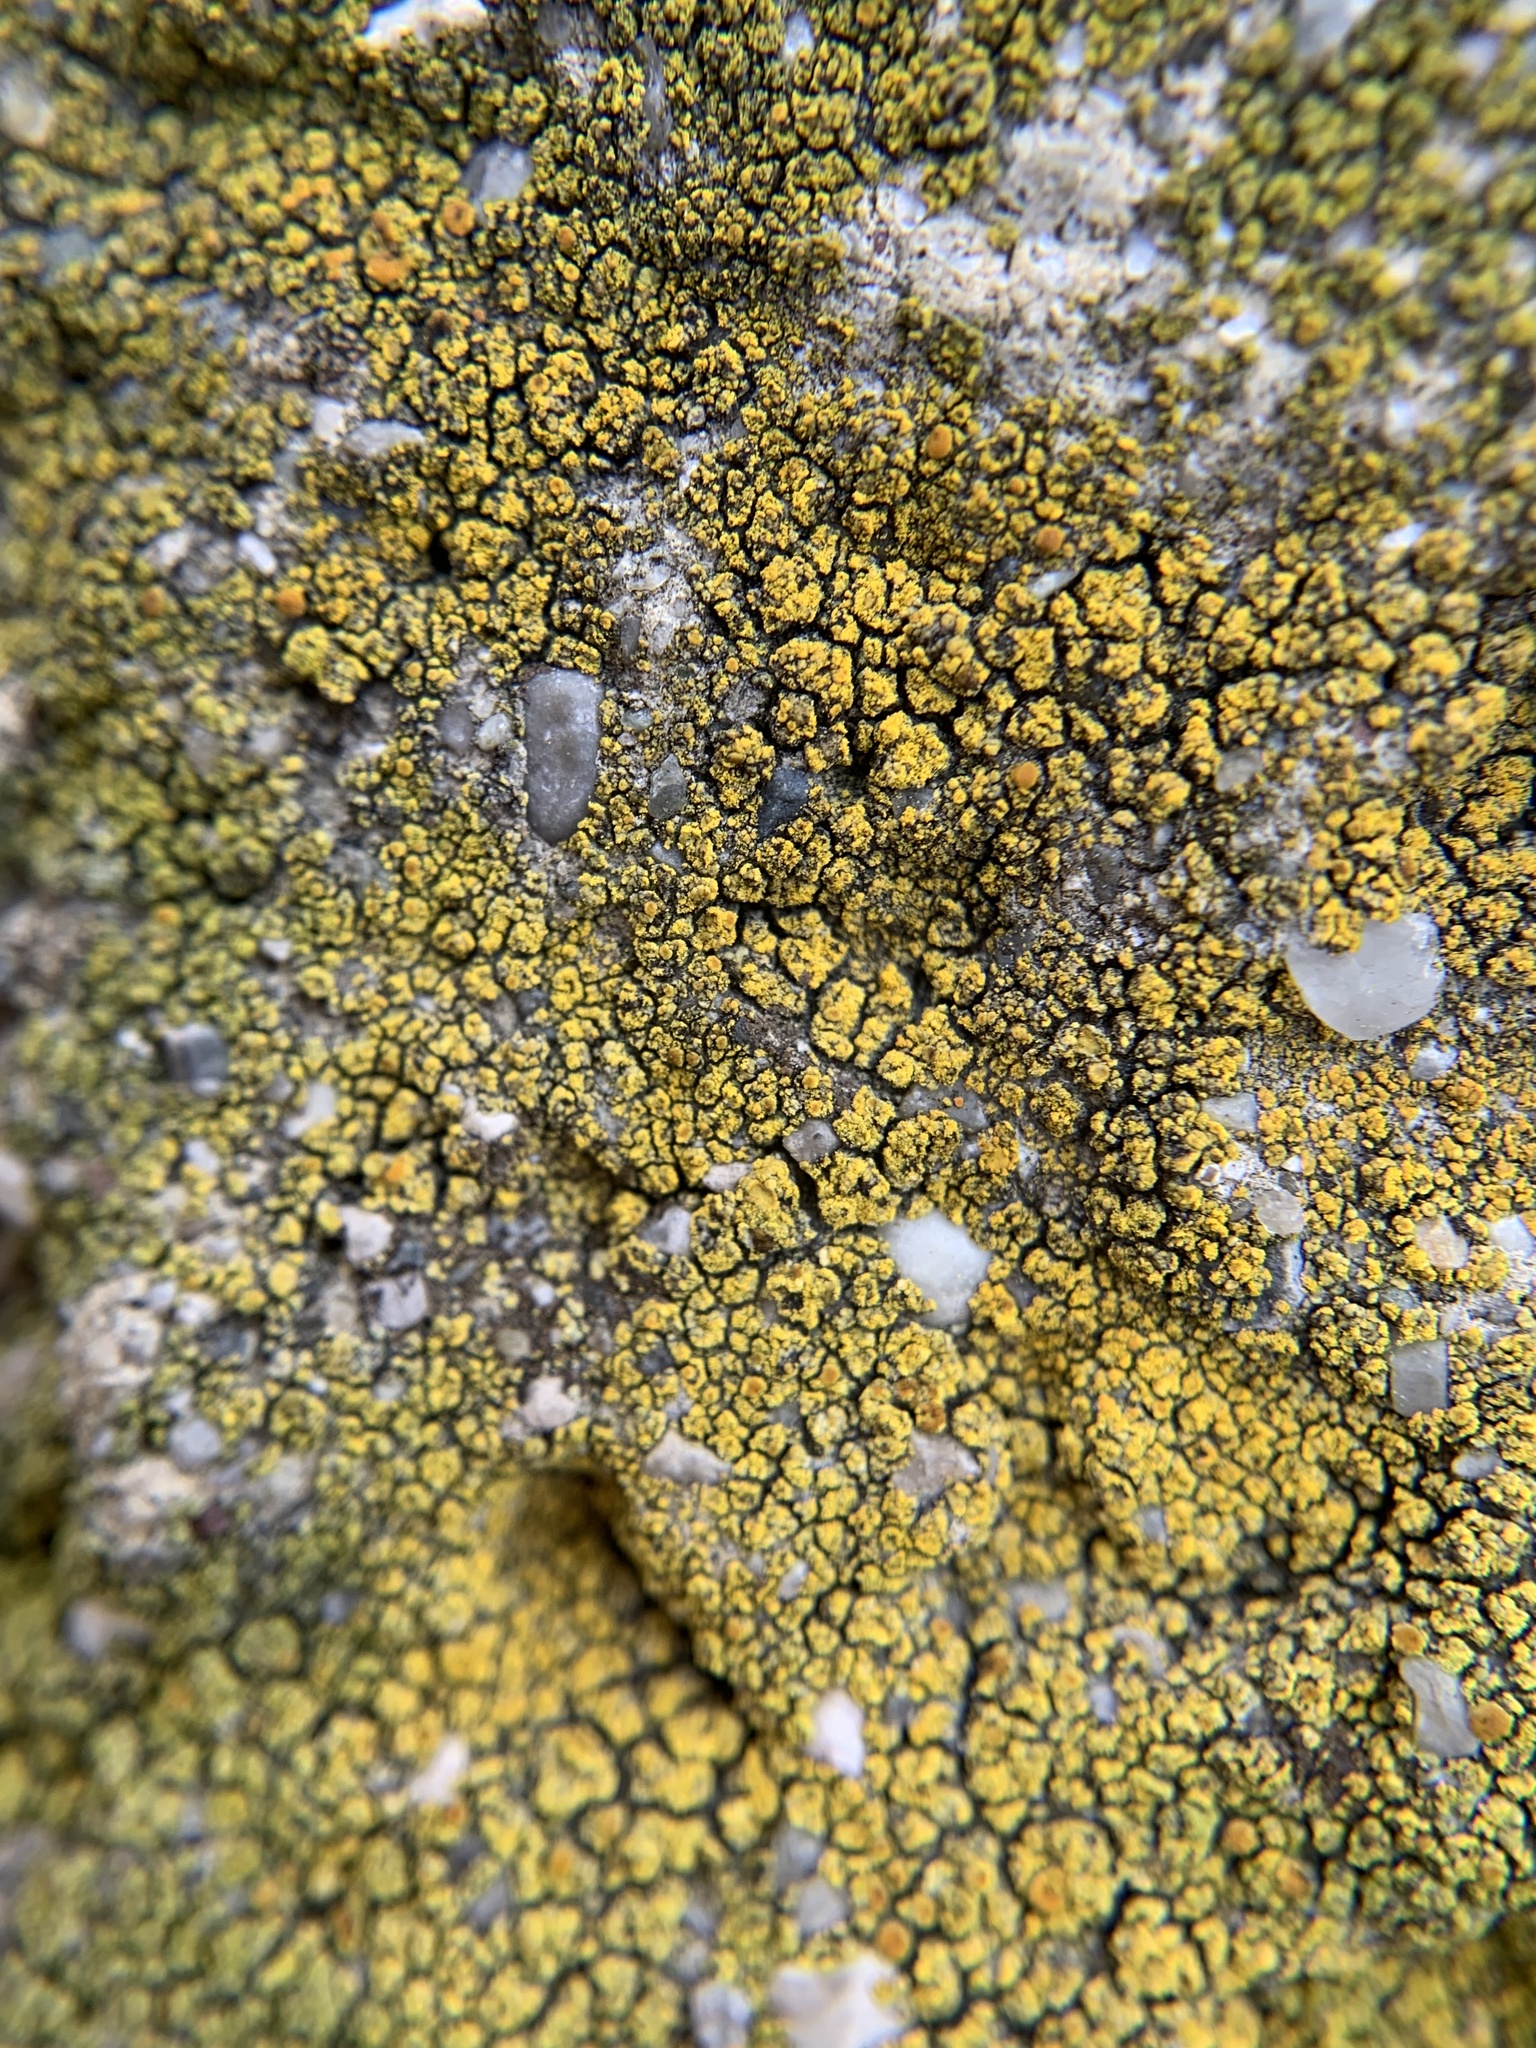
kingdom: Fungi
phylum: Ascomycota
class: Candelariomycetes
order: Candelariales
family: Candelariaceae
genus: Candelariella
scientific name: Candelariella vitellina
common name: Common goldspeck
